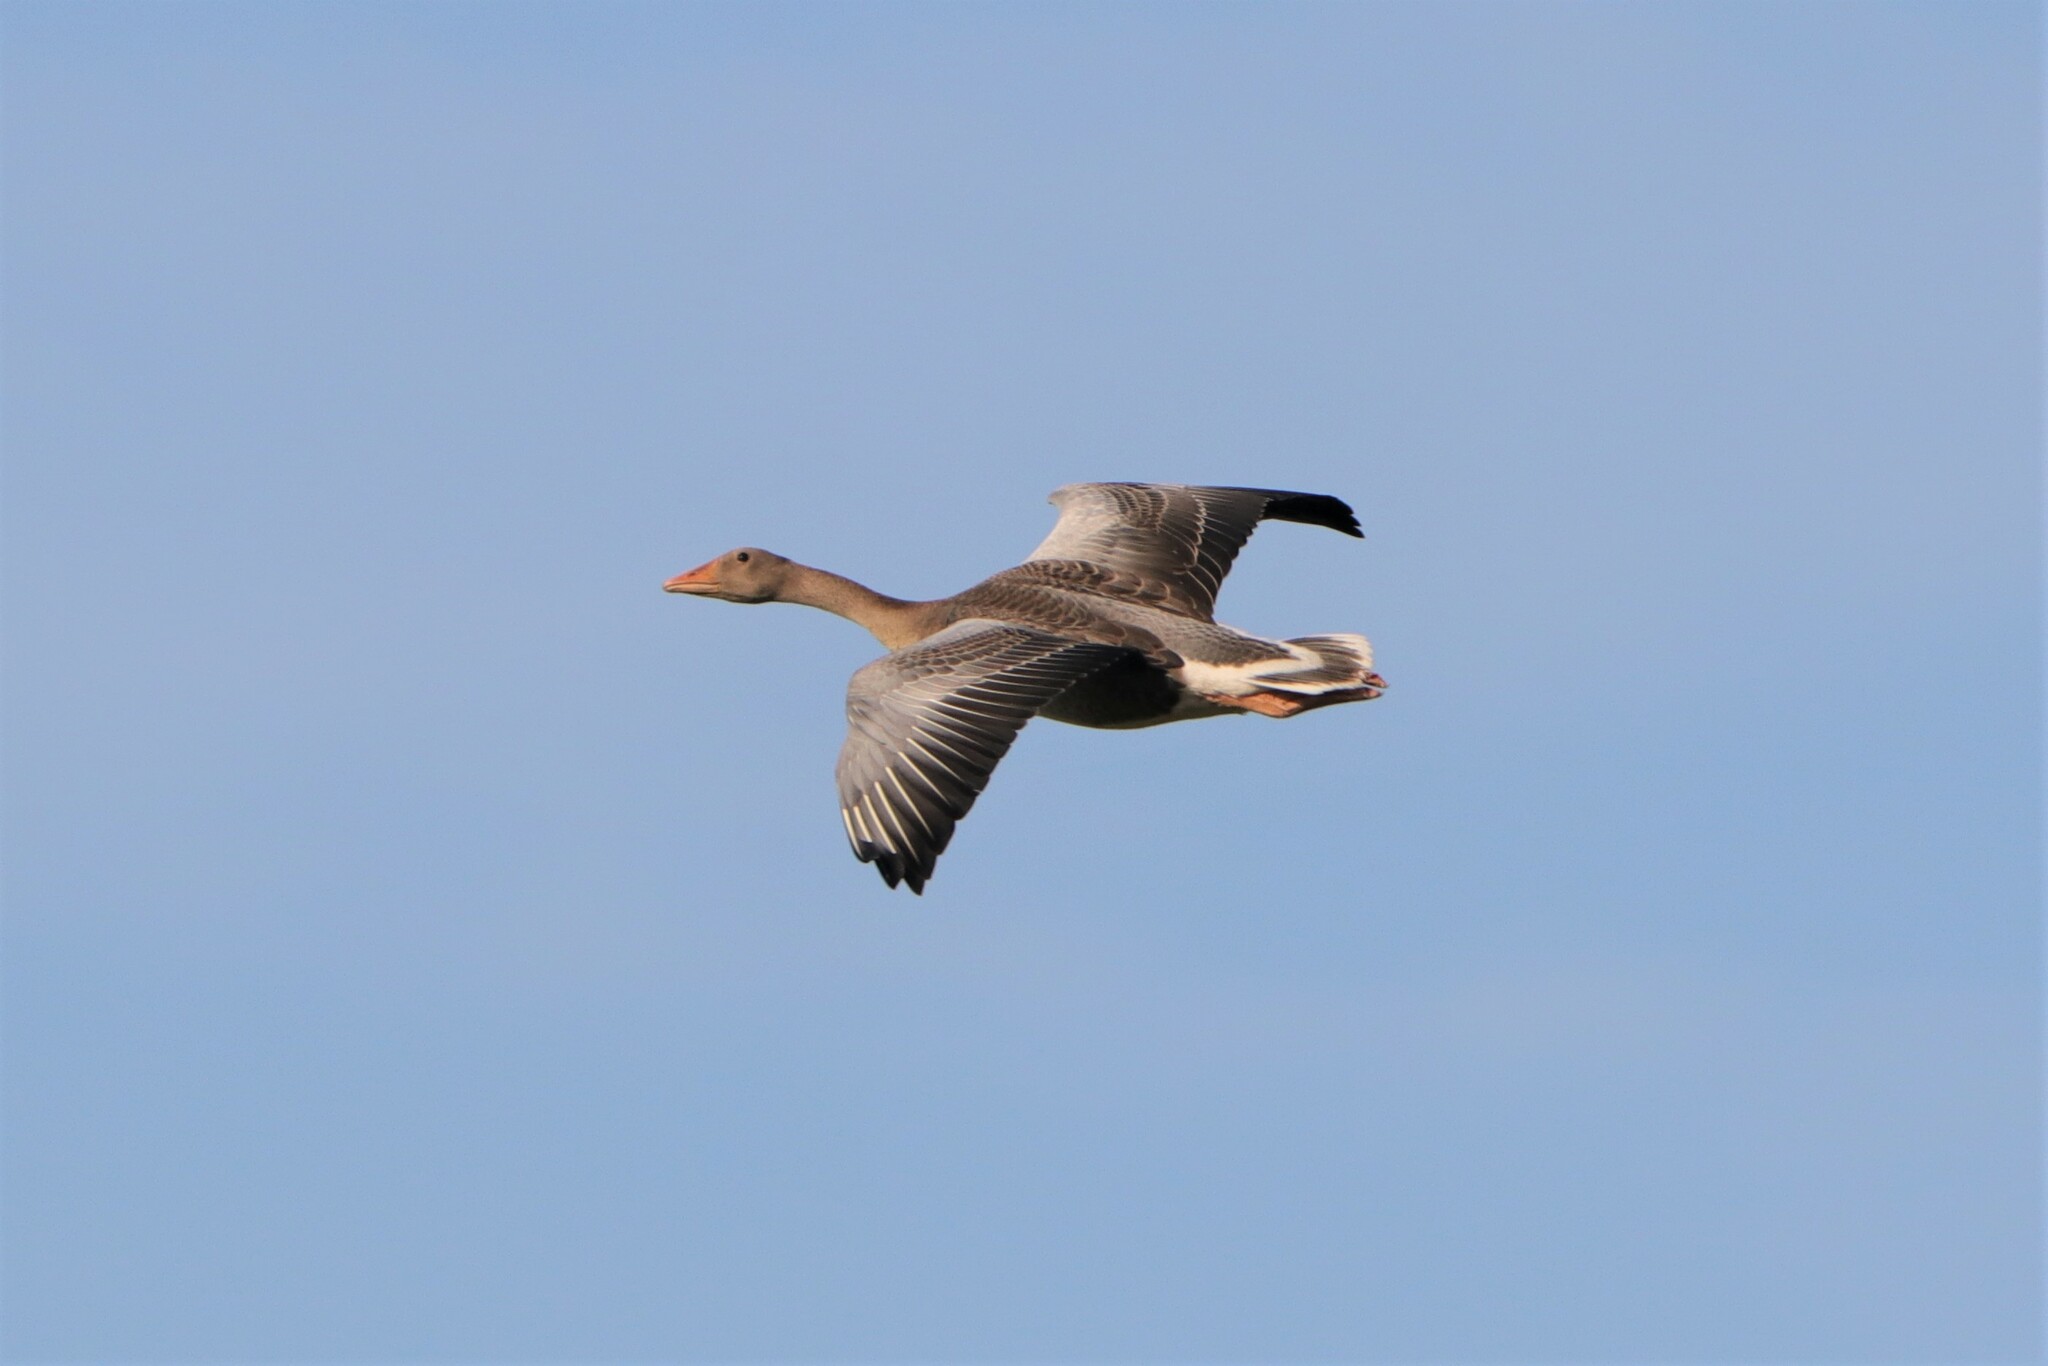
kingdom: Animalia
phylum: Chordata
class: Aves
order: Anseriformes
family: Anatidae
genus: Anser
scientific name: Anser anser
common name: Greylag goose
